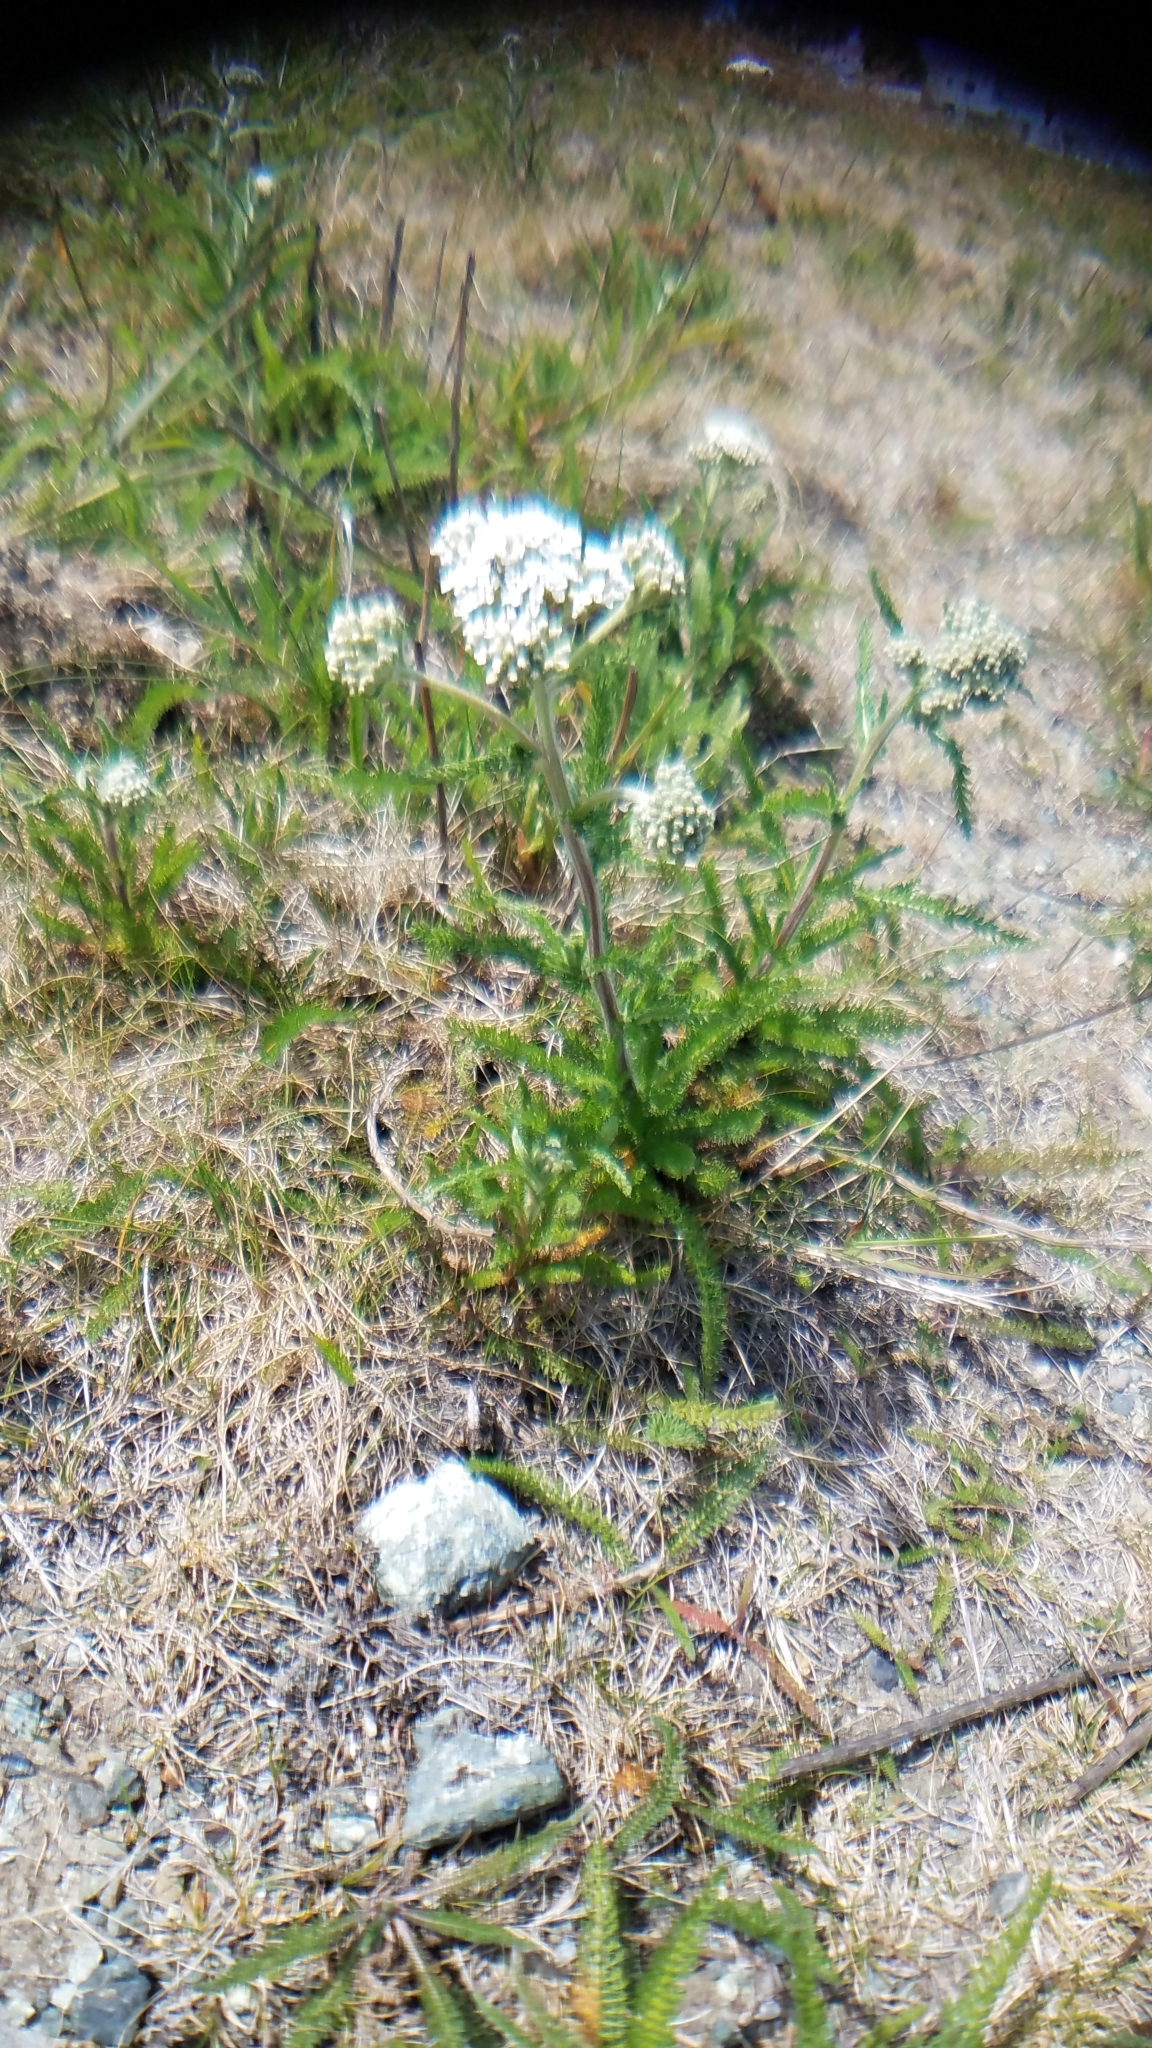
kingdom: Plantae
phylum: Tracheophyta
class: Magnoliopsida
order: Asterales
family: Asteraceae
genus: Achillea
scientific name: Achillea millefolium
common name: Yarrow
